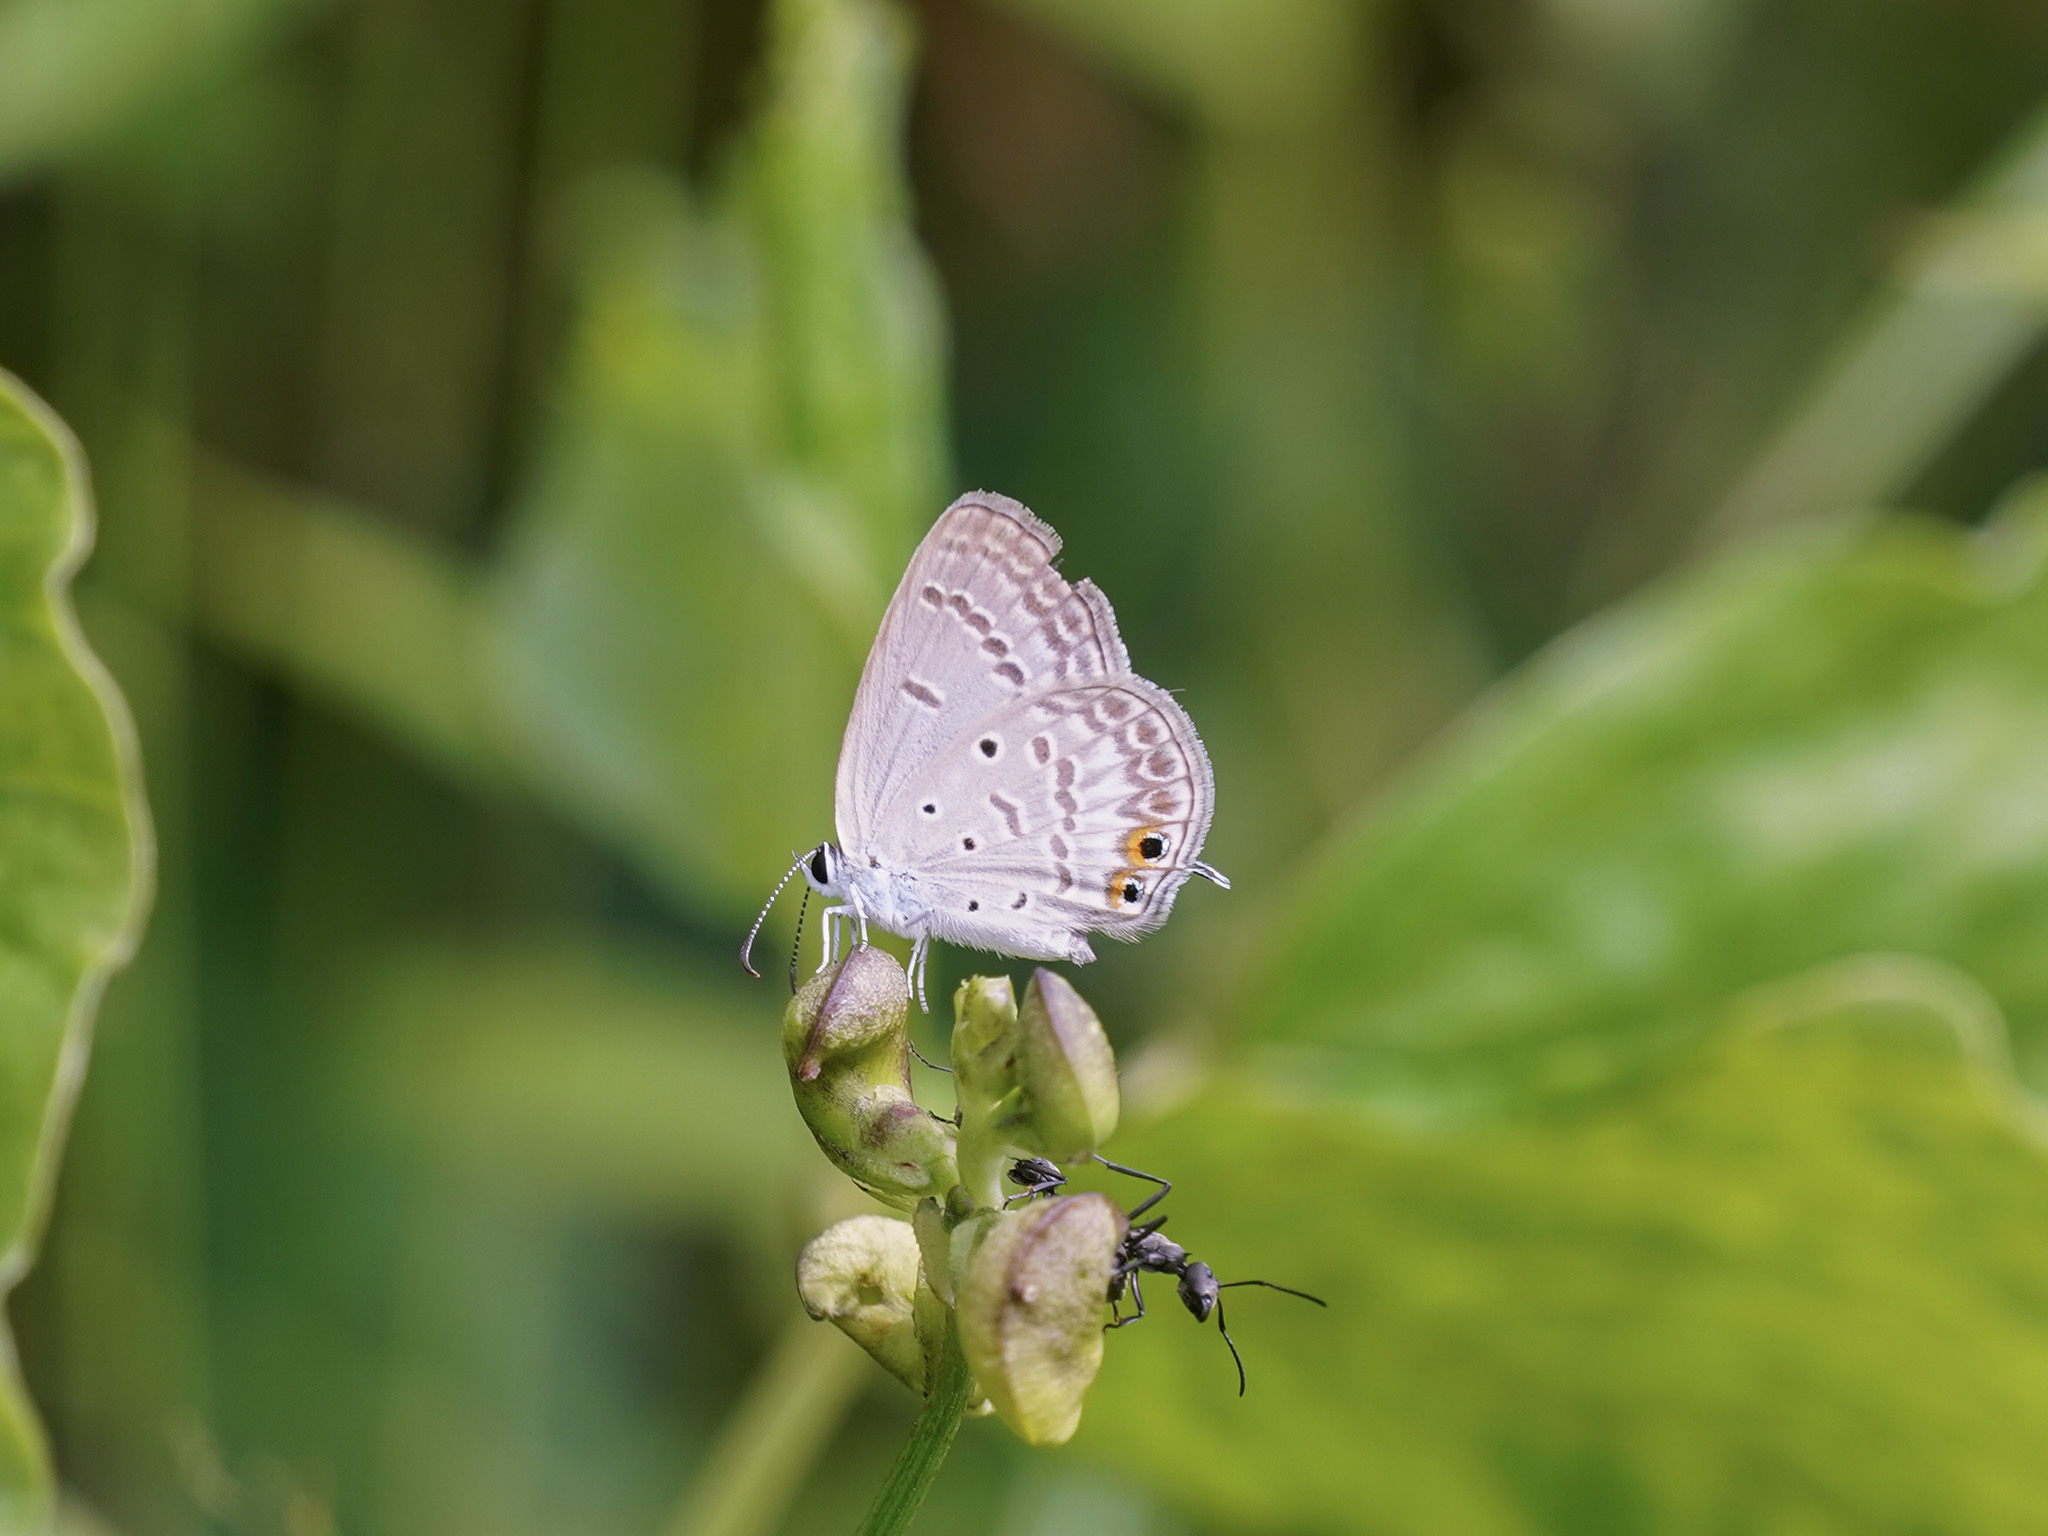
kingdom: Animalia
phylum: Arthropoda
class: Insecta
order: Lepidoptera
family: Lycaenidae
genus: Euchrysops
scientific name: Euchrysops cnejus
